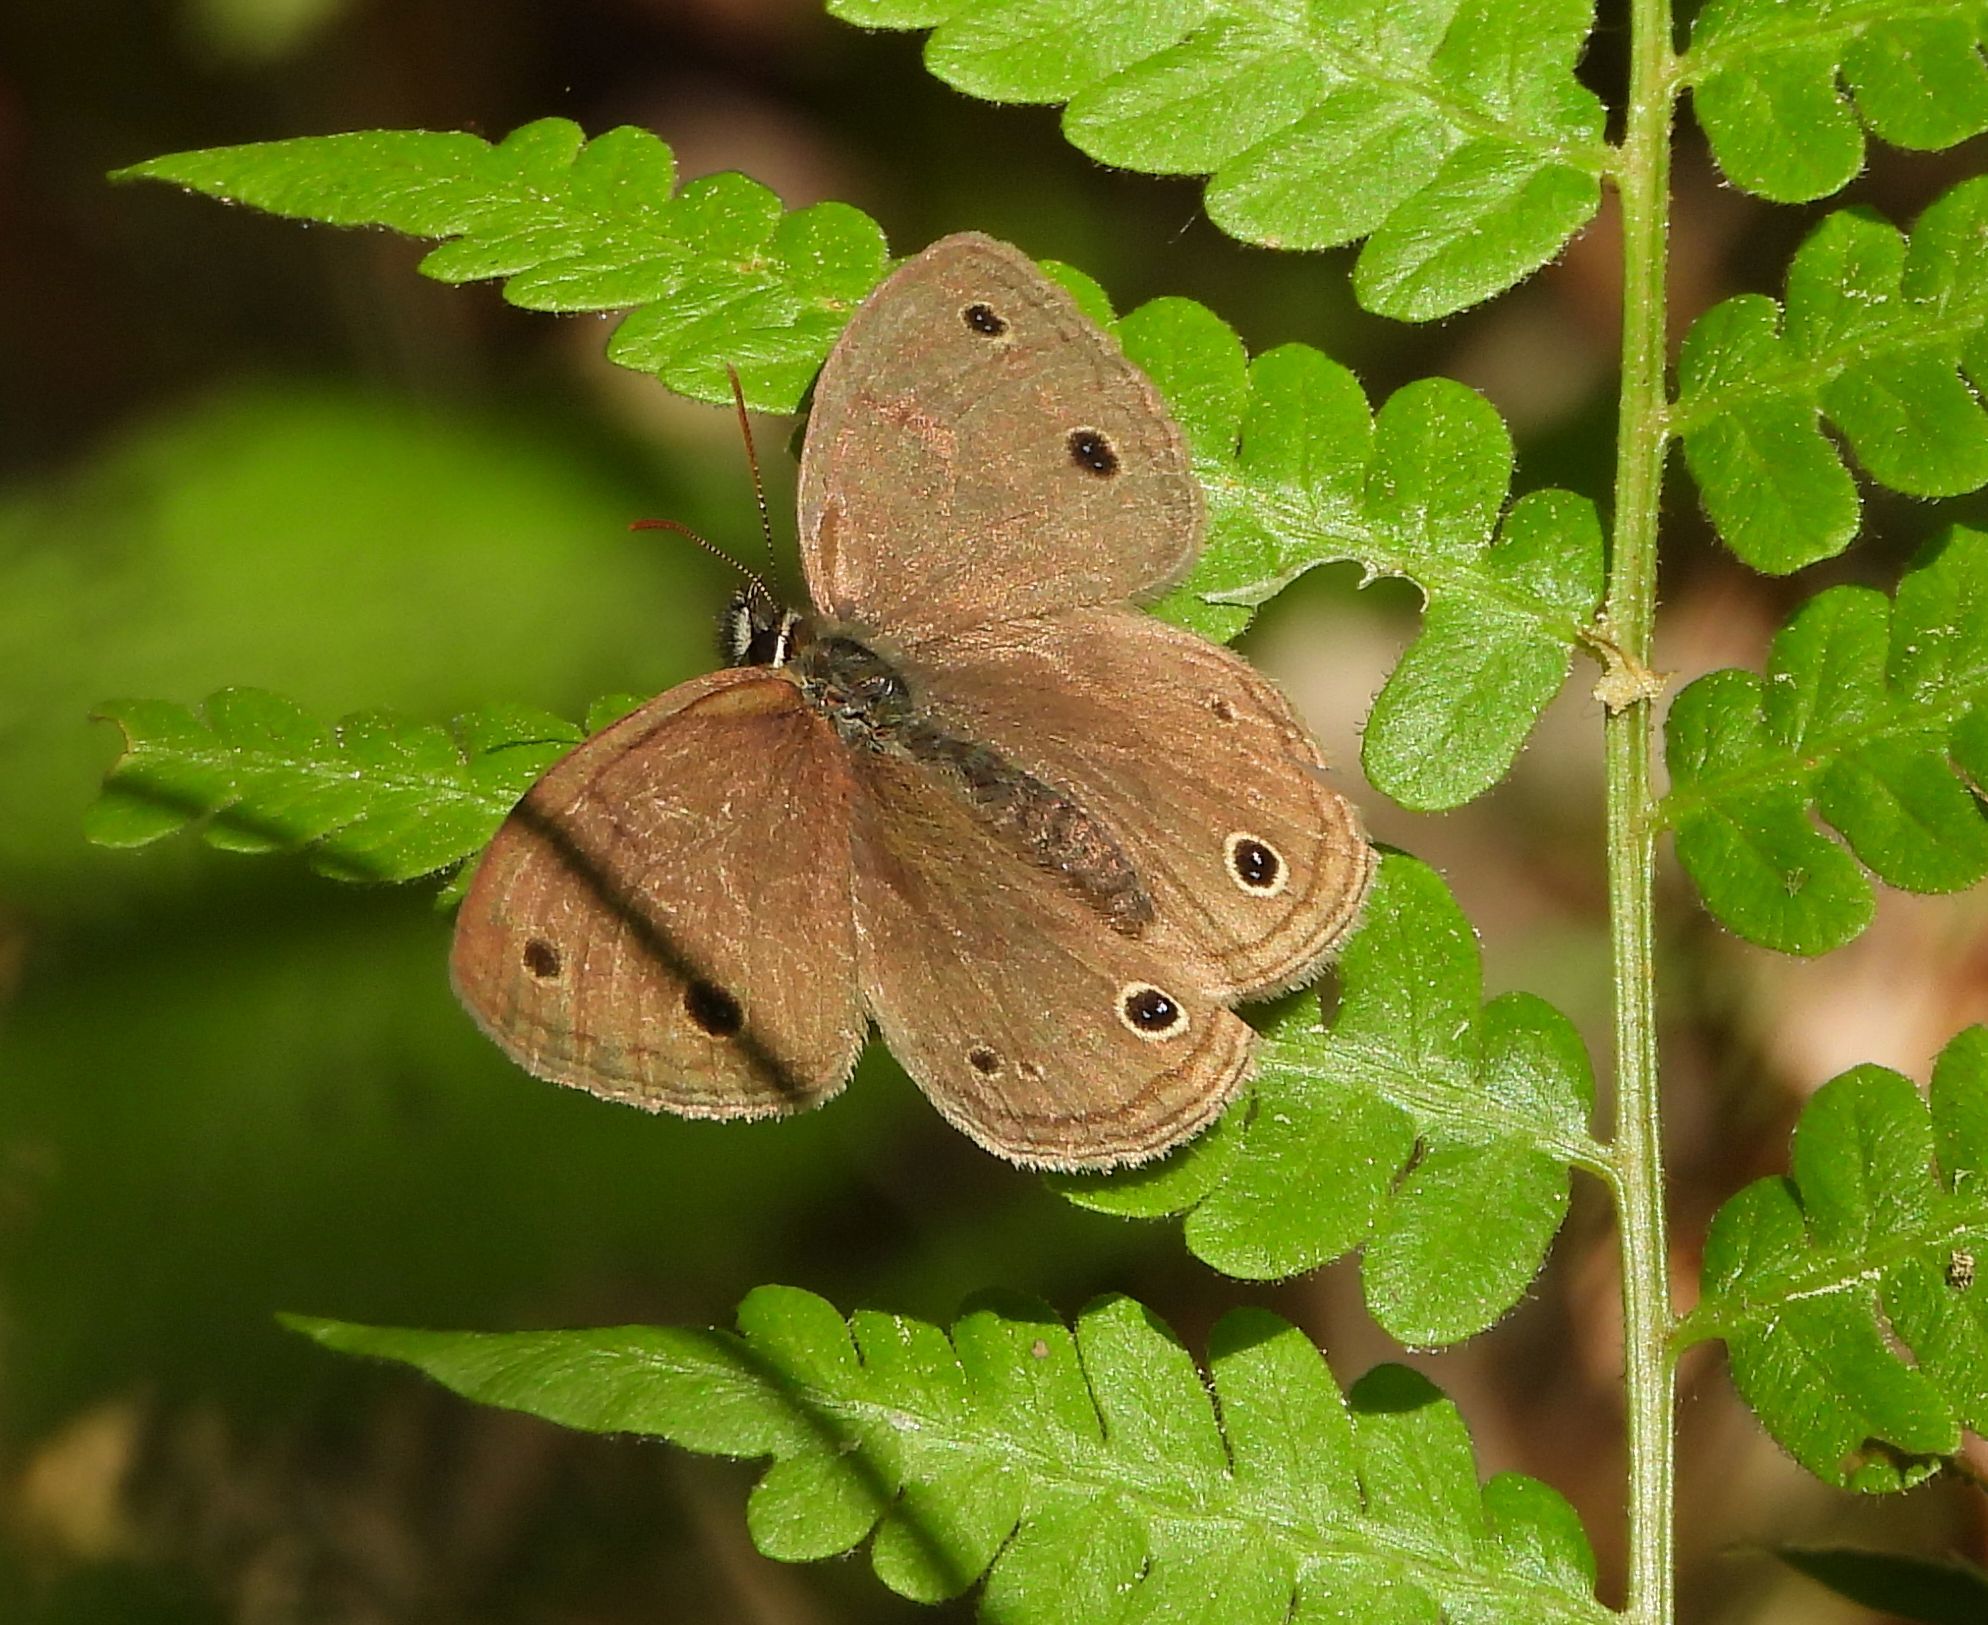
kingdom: Animalia
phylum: Arthropoda
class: Insecta
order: Lepidoptera
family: Nymphalidae
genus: Euptychia
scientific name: Euptychia cymela
